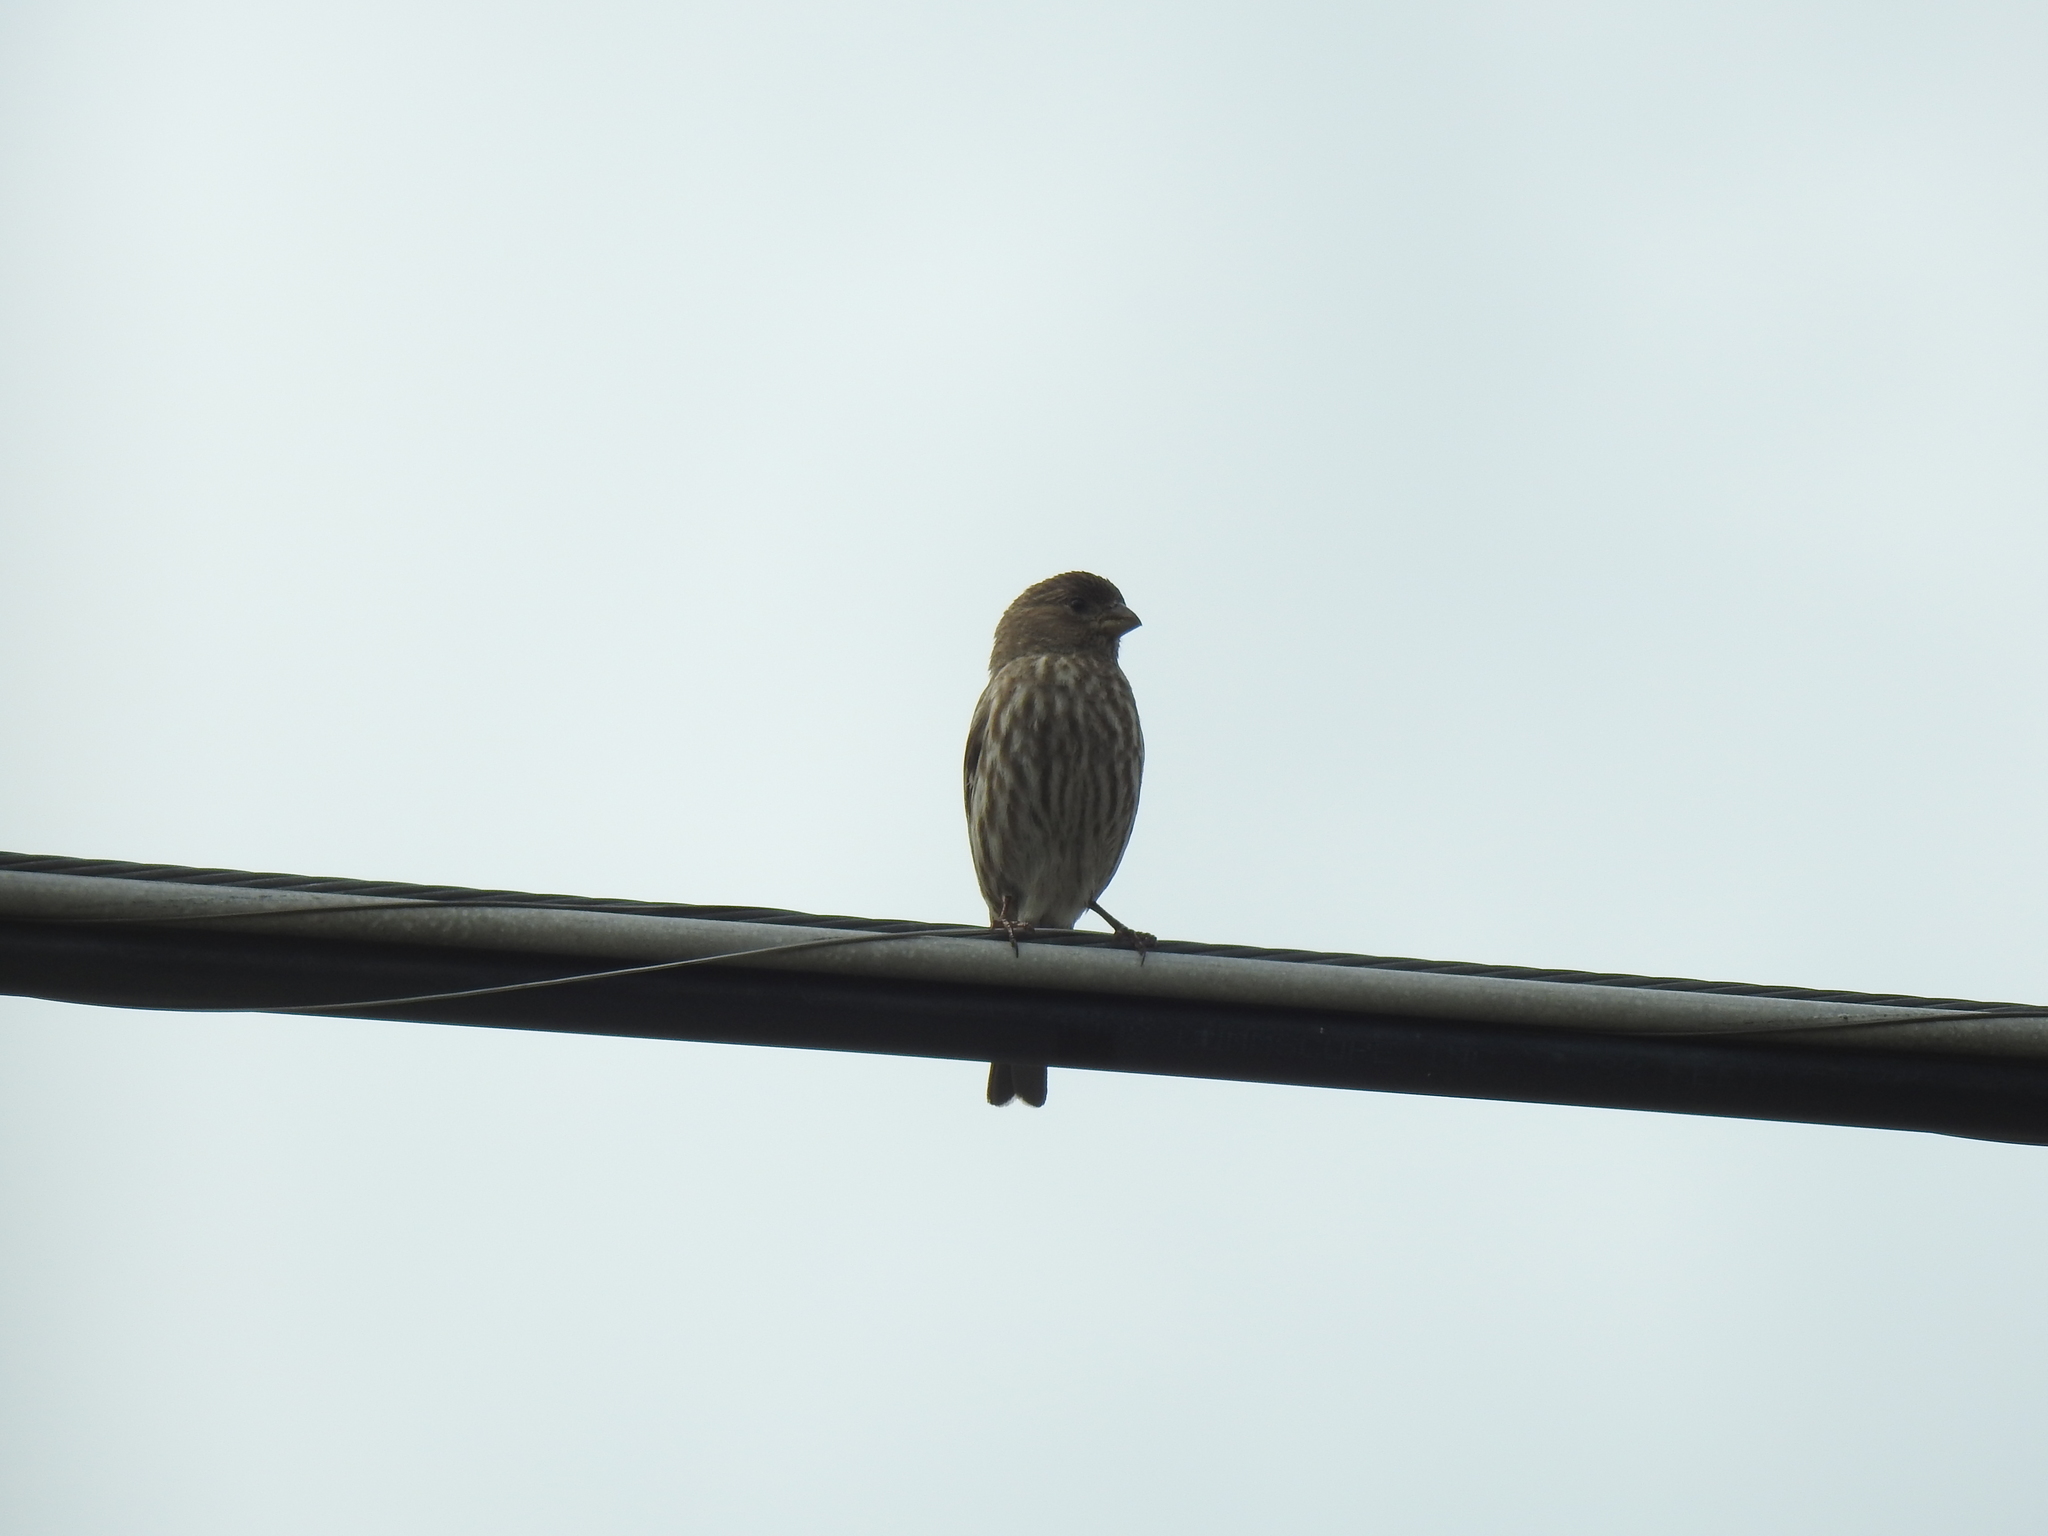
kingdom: Animalia
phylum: Chordata
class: Aves
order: Passeriformes
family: Fringillidae
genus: Haemorhous
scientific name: Haemorhous mexicanus
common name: House finch
